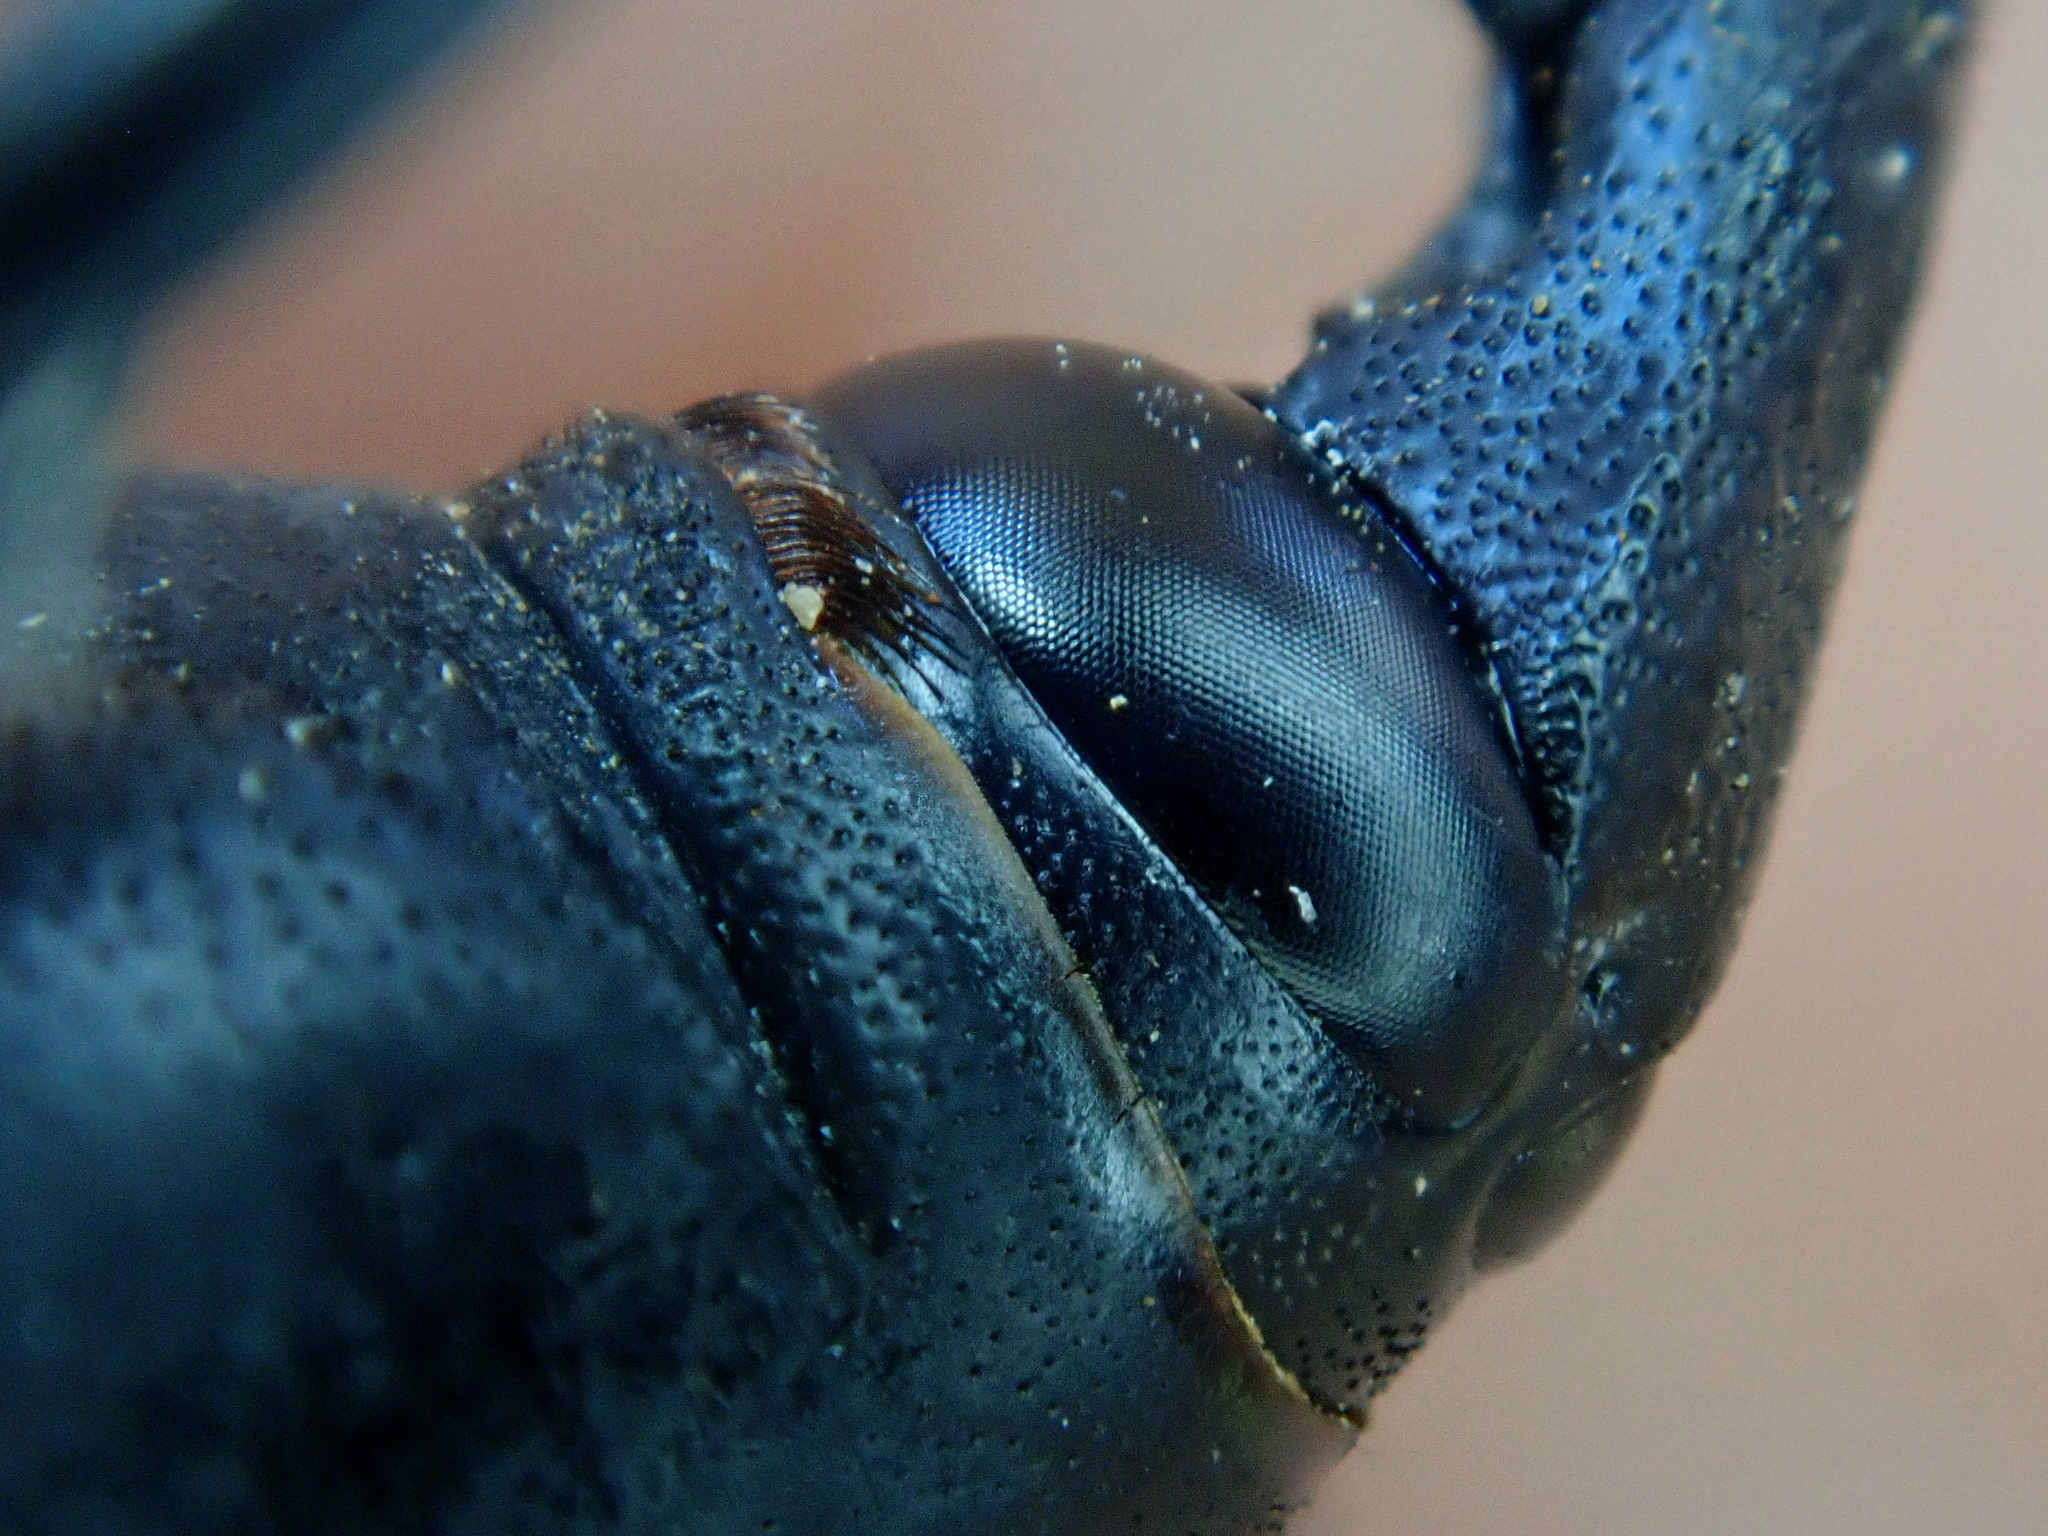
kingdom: Animalia
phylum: Arthropoda
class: Insecta
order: Coleoptera
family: Dryophthoridae
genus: Rhynchophorus
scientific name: Rhynchophorus palmarum
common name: Palm weevil
